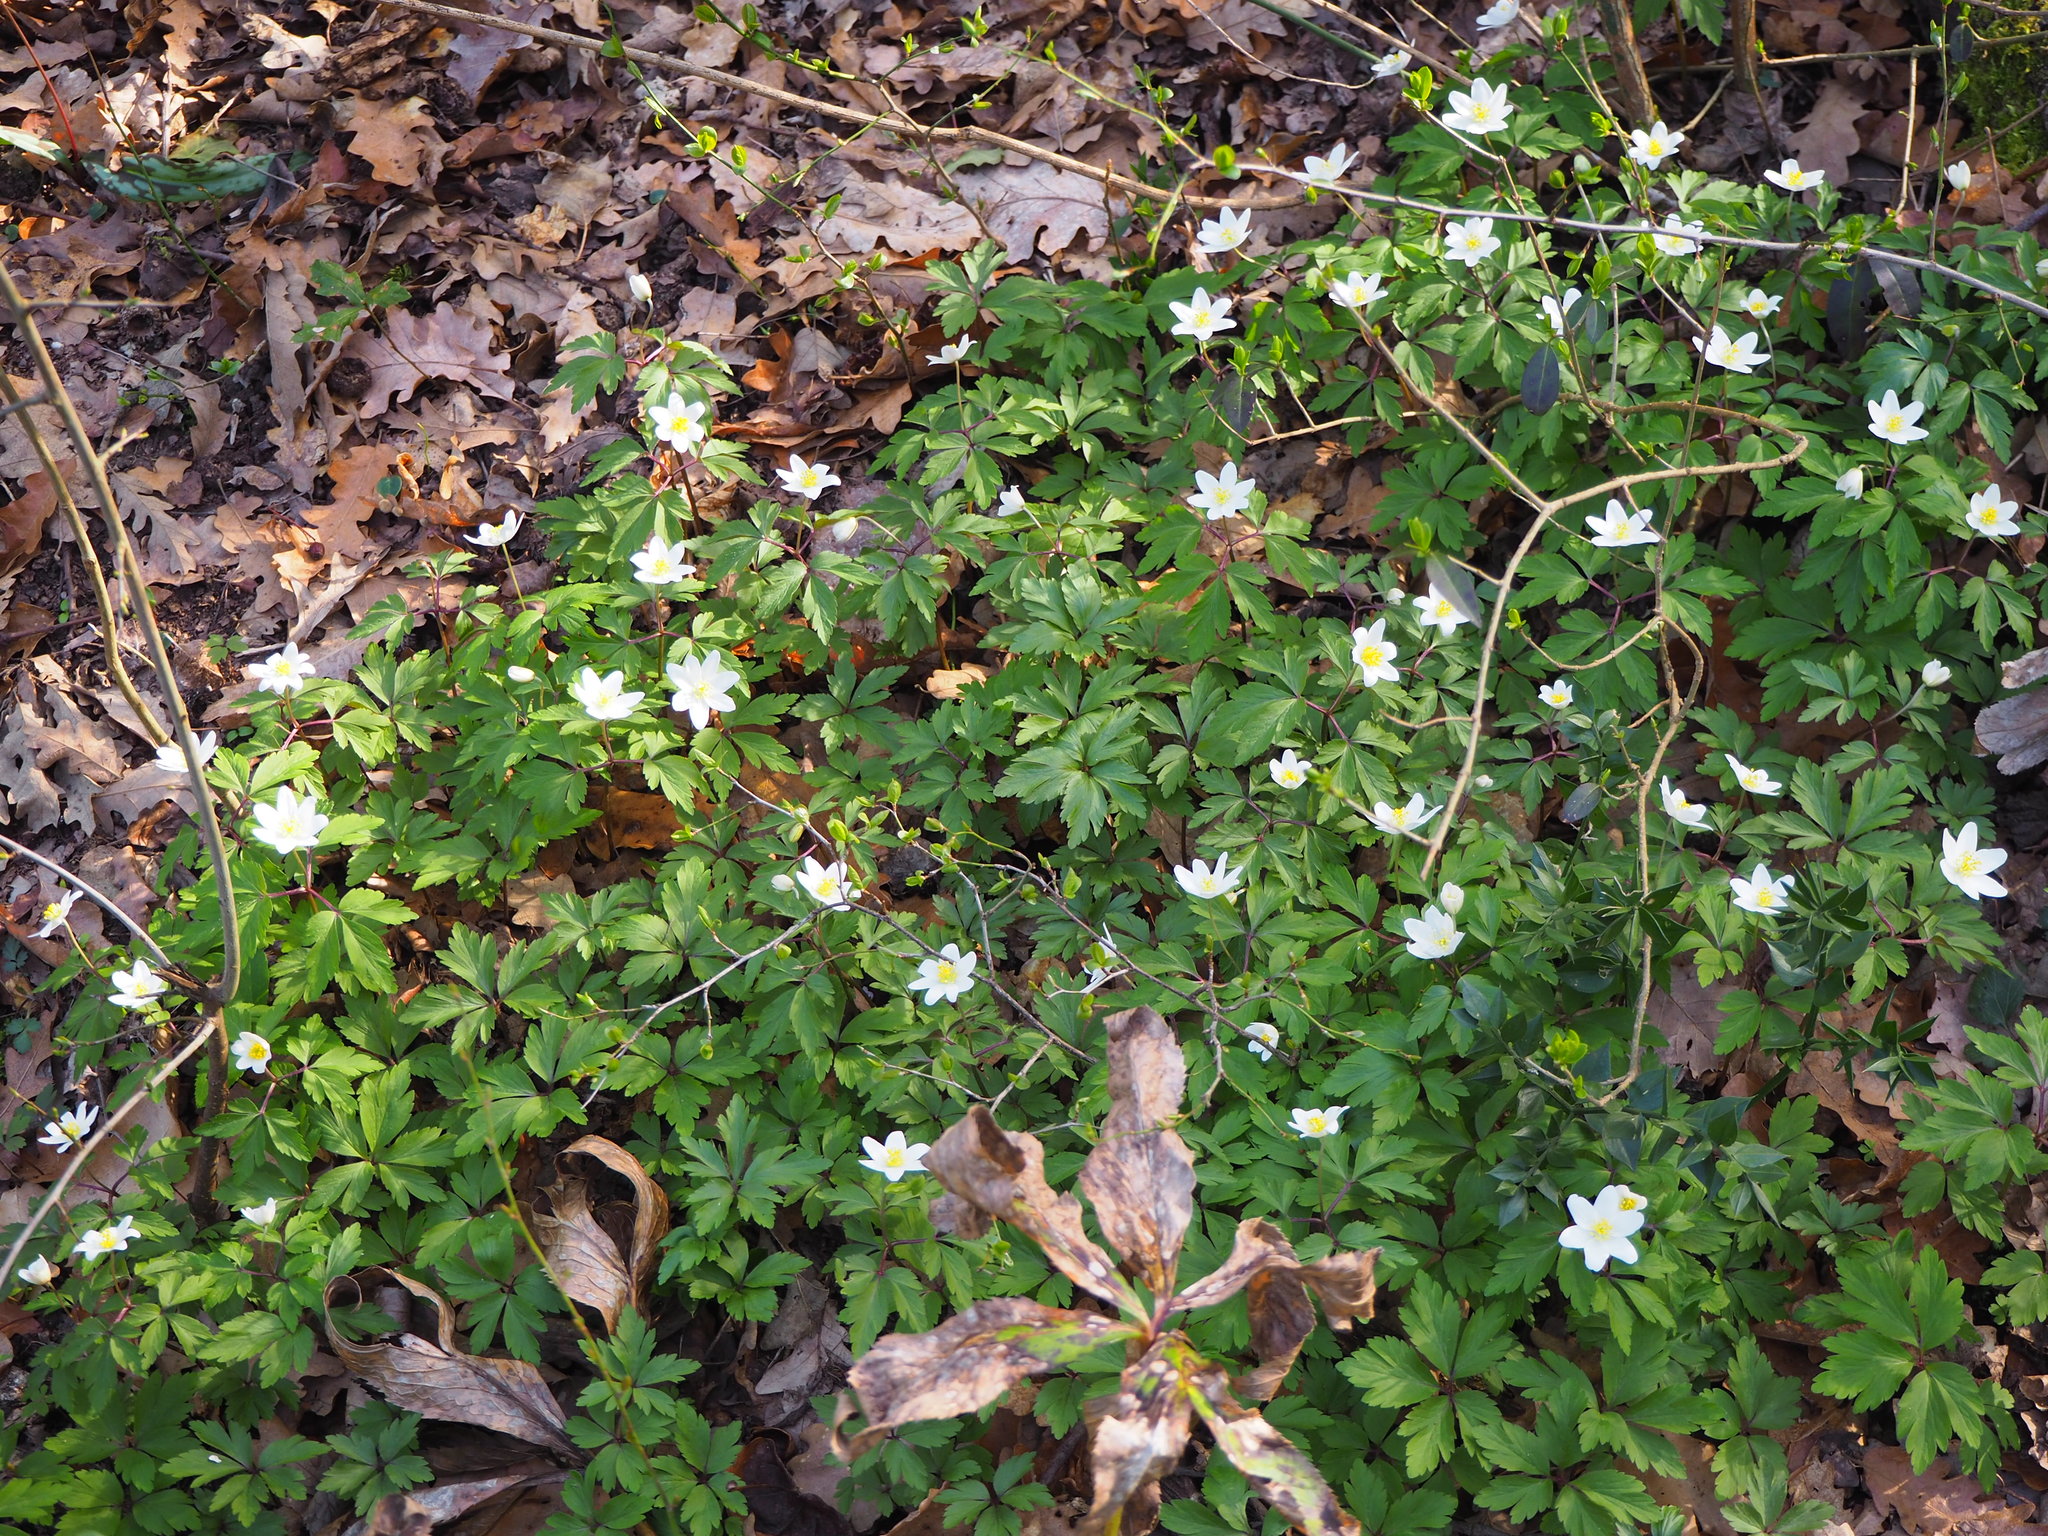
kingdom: Plantae
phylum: Tracheophyta
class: Magnoliopsida
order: Ranunculales
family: Ranunculaceae
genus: Anemone
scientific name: Anemone nemorosa
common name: Wood anemone
